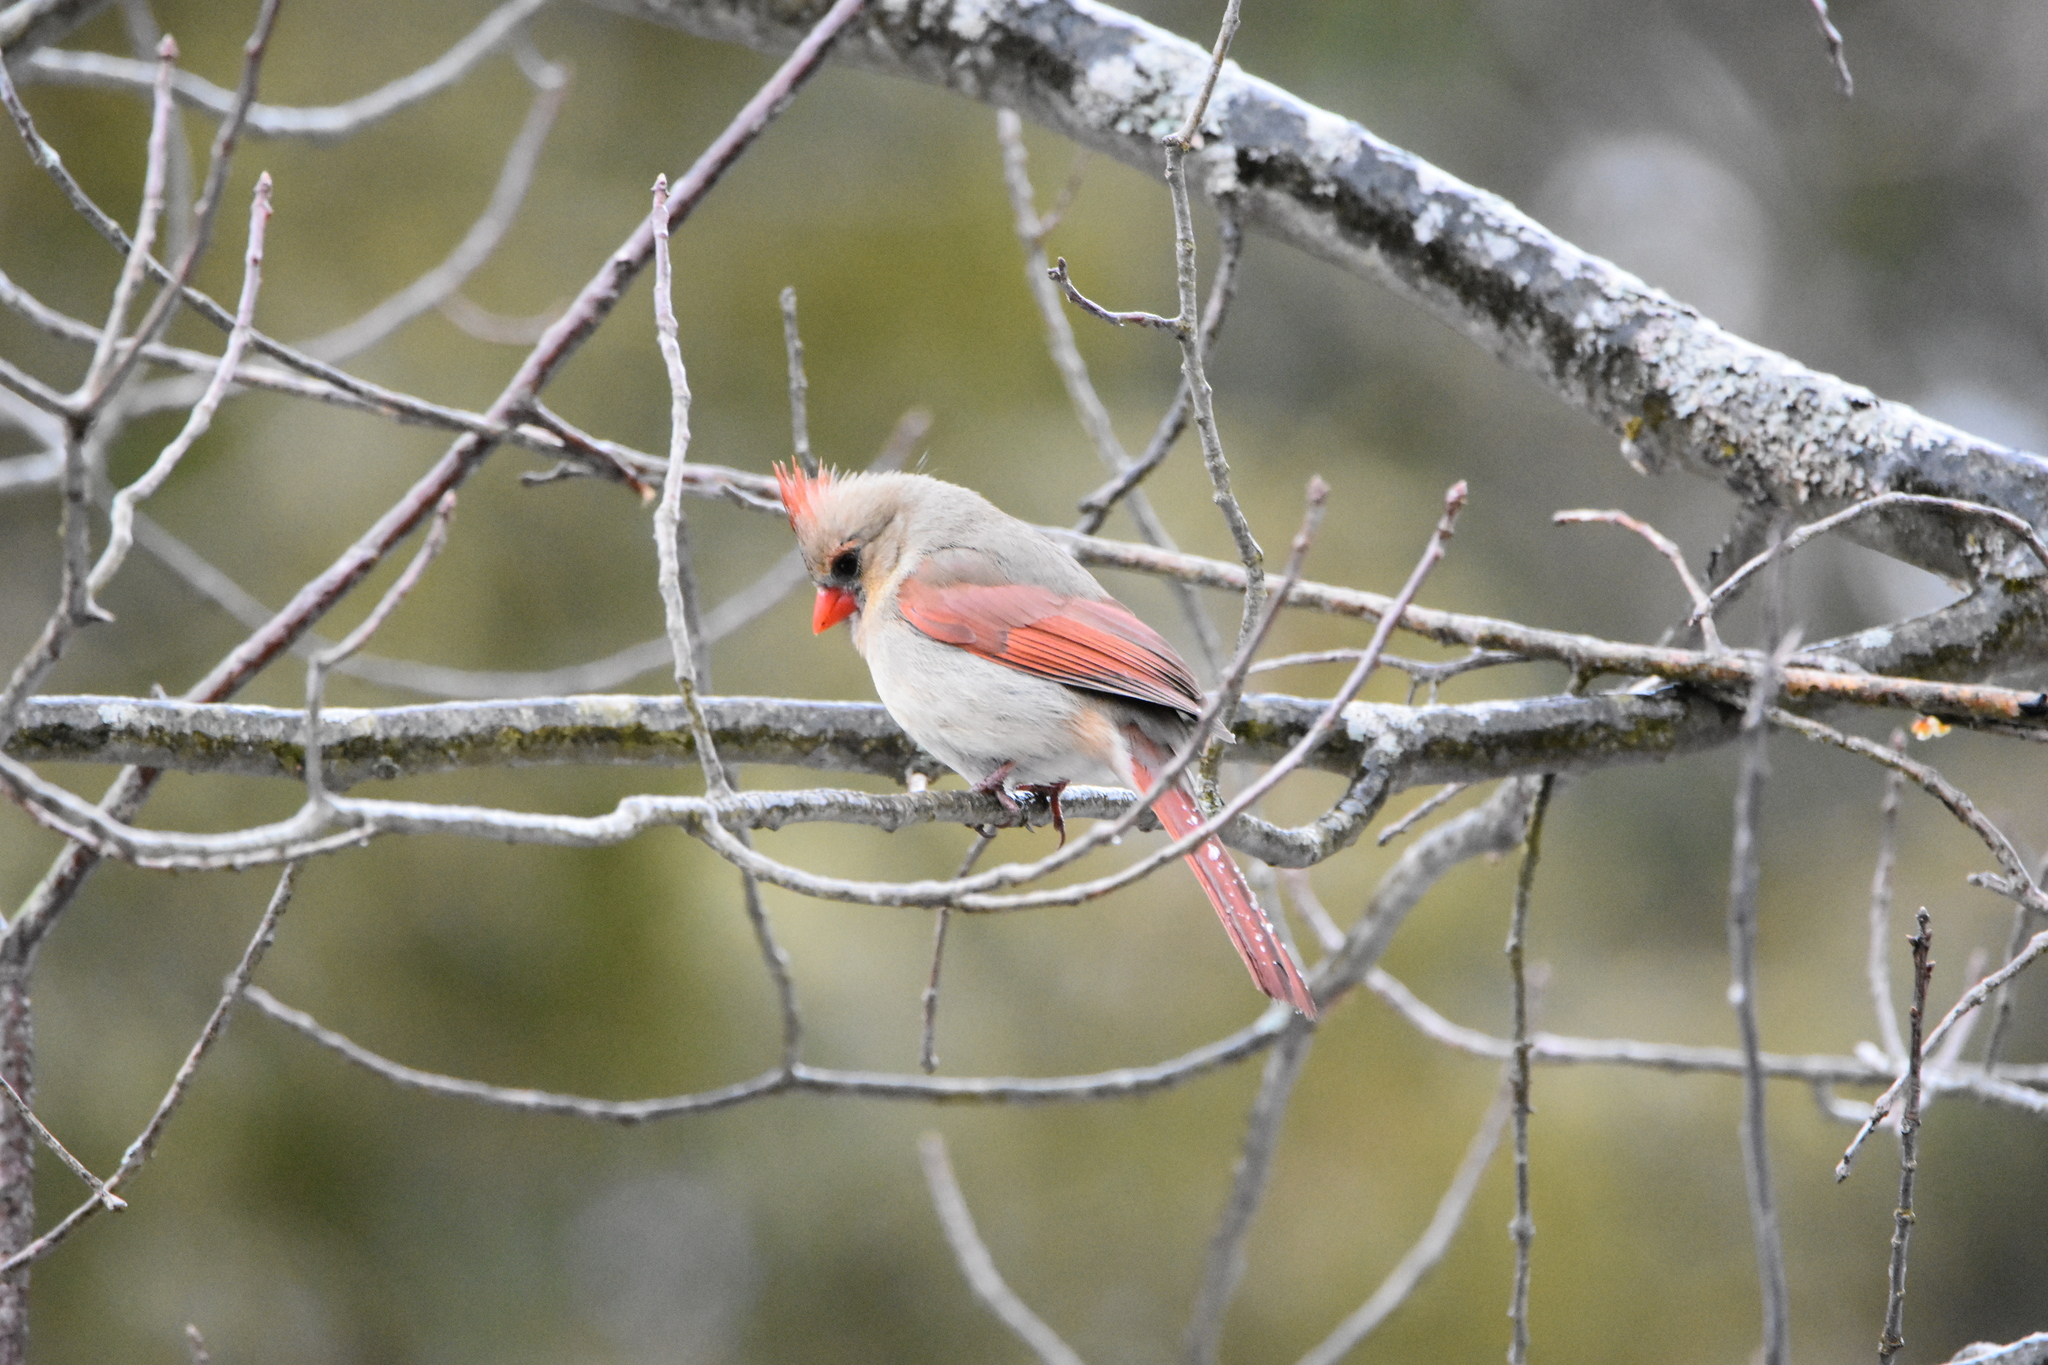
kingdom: Animalia
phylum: Chordata
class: Aves
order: Passeriformes
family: Cardinalidae
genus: Cardinalis
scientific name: Cardinalis cardinalis
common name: Northern cardinal
